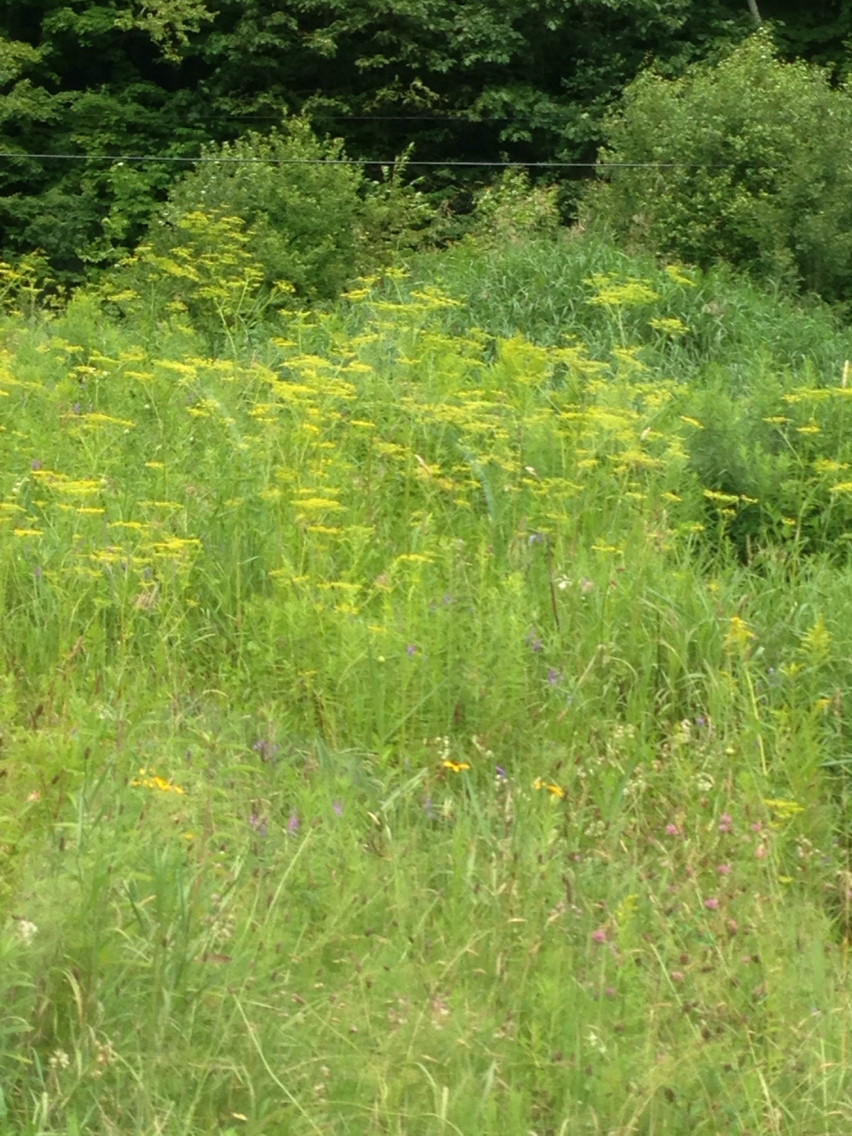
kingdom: Plantae
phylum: Tracheophyta
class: Magnoliopsida
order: Apiales
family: Apiaceae
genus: Pastinaca
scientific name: Pastinaca sativa
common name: Wild parsnip
